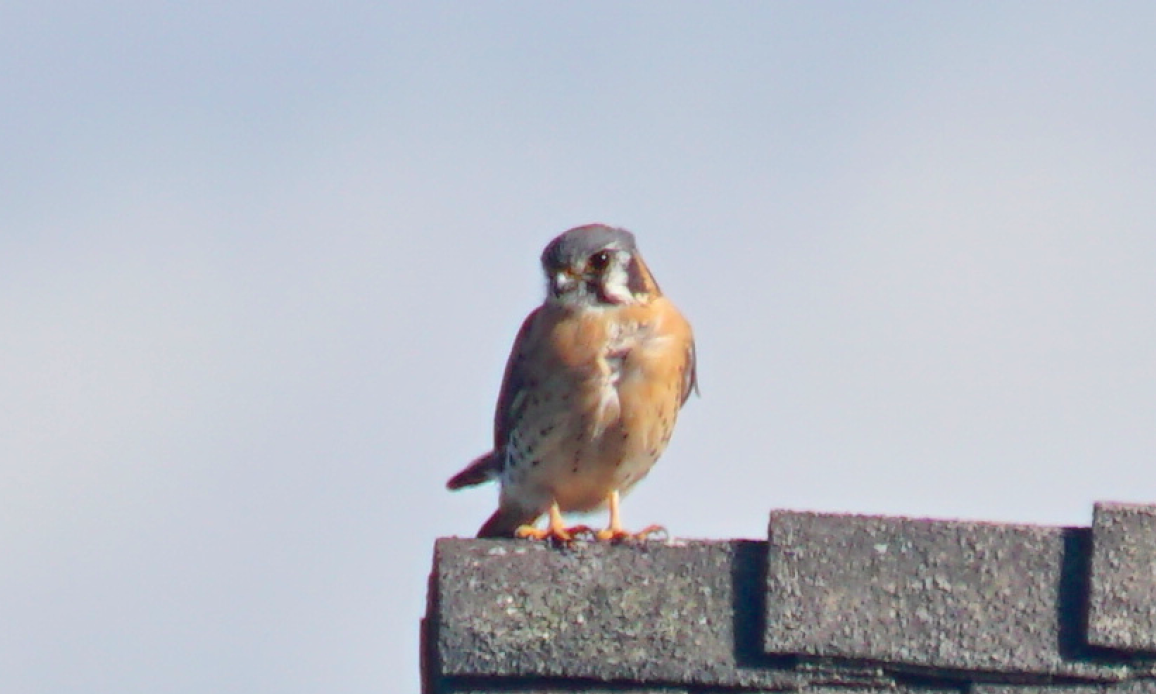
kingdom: Animalia
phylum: Chordata
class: Aves
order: Falconiformes
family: Falconidae
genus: Falco
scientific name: Falco sparverius
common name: American kestrel
